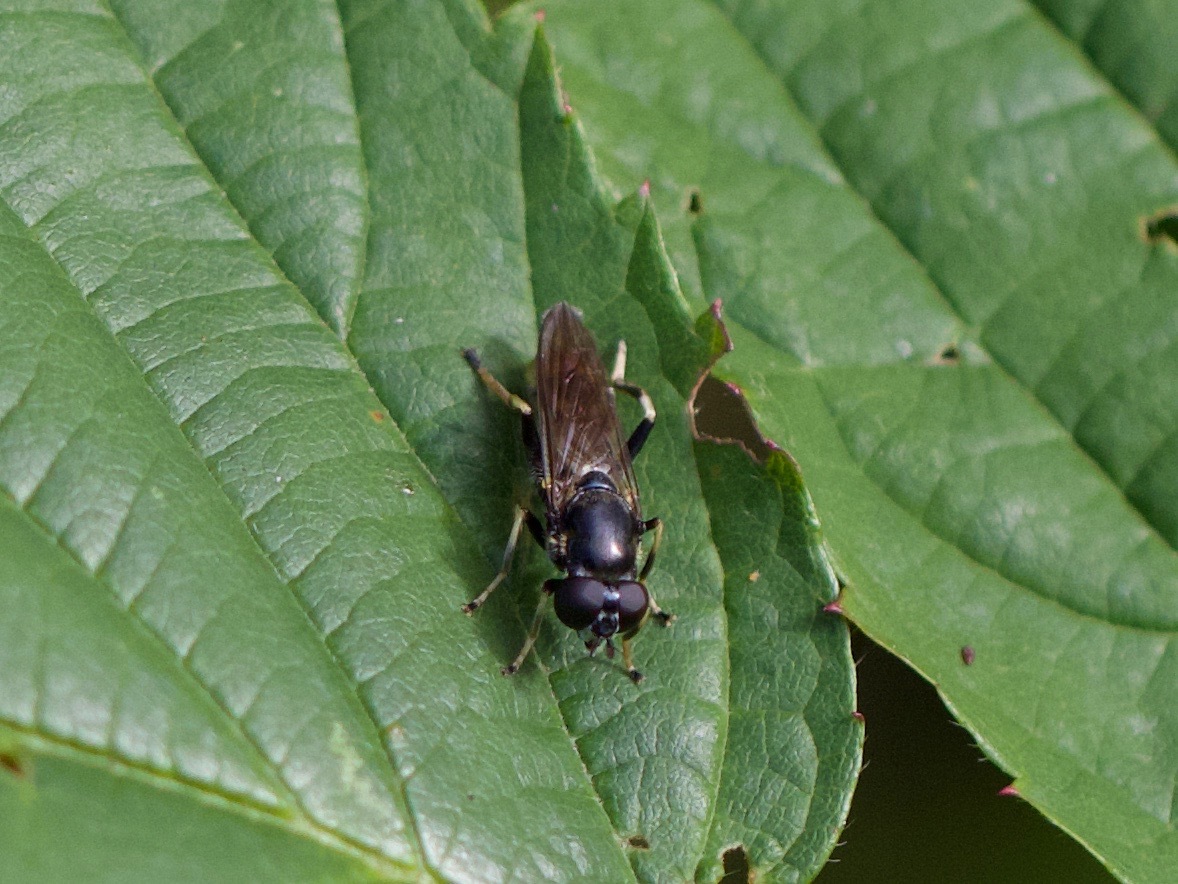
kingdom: Animalia
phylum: Arthropoda
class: Insecta
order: Diptera
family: Syrphidae
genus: Xylota
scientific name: Xylota sylvarum
